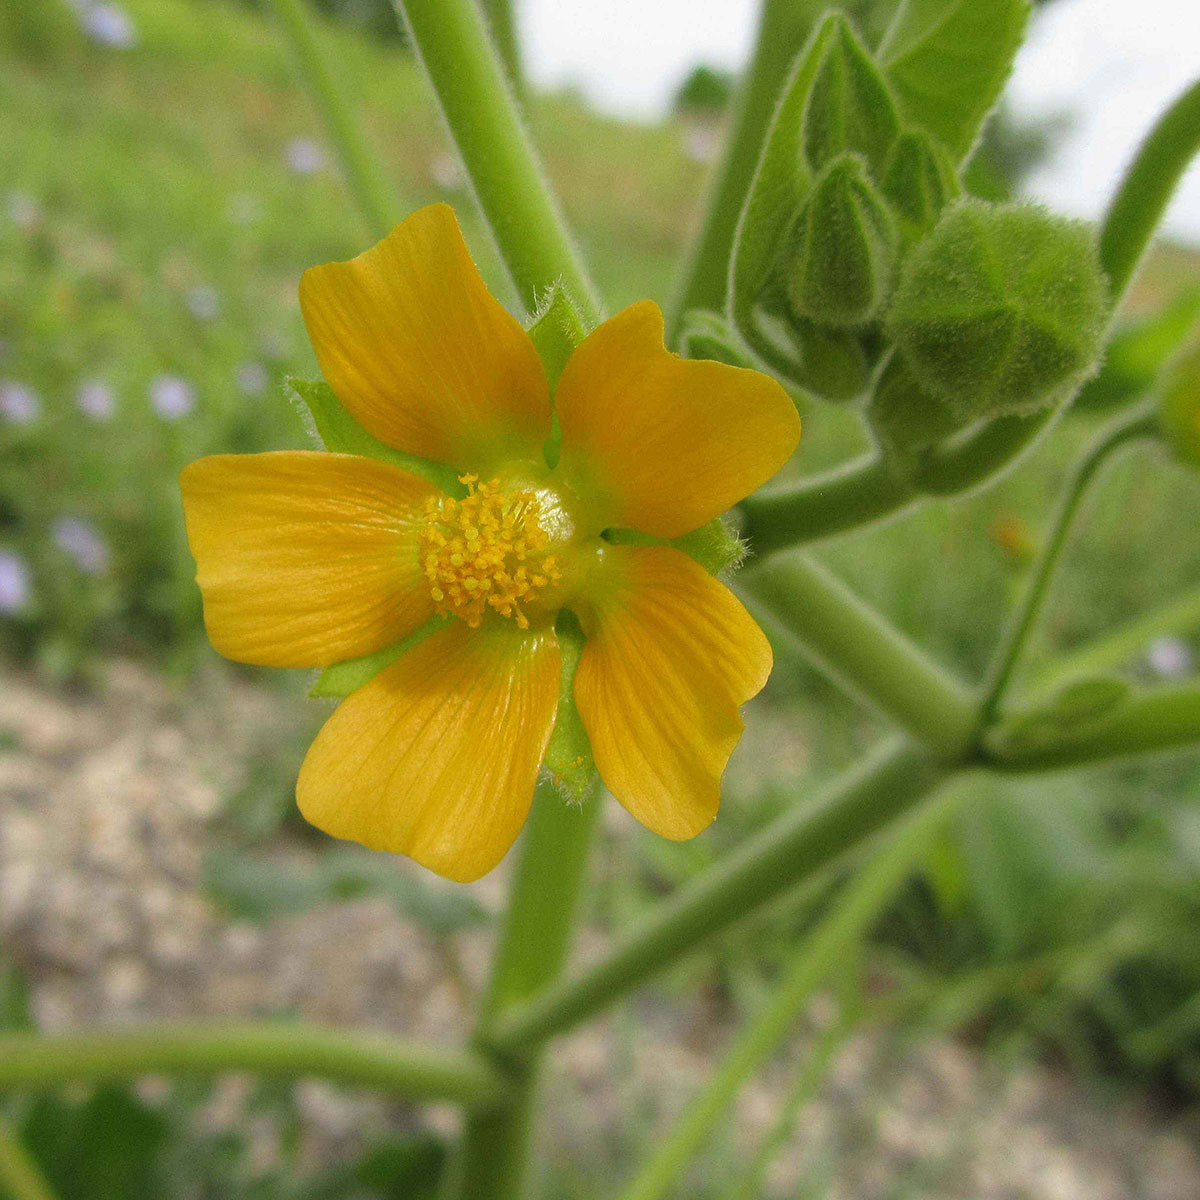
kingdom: Plantae
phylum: Tracheophyta
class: Magnoliopsida
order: Malvales
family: Malvaceae
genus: Abutilon
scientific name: Abutilon theophrasti
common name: Velvetleaf
